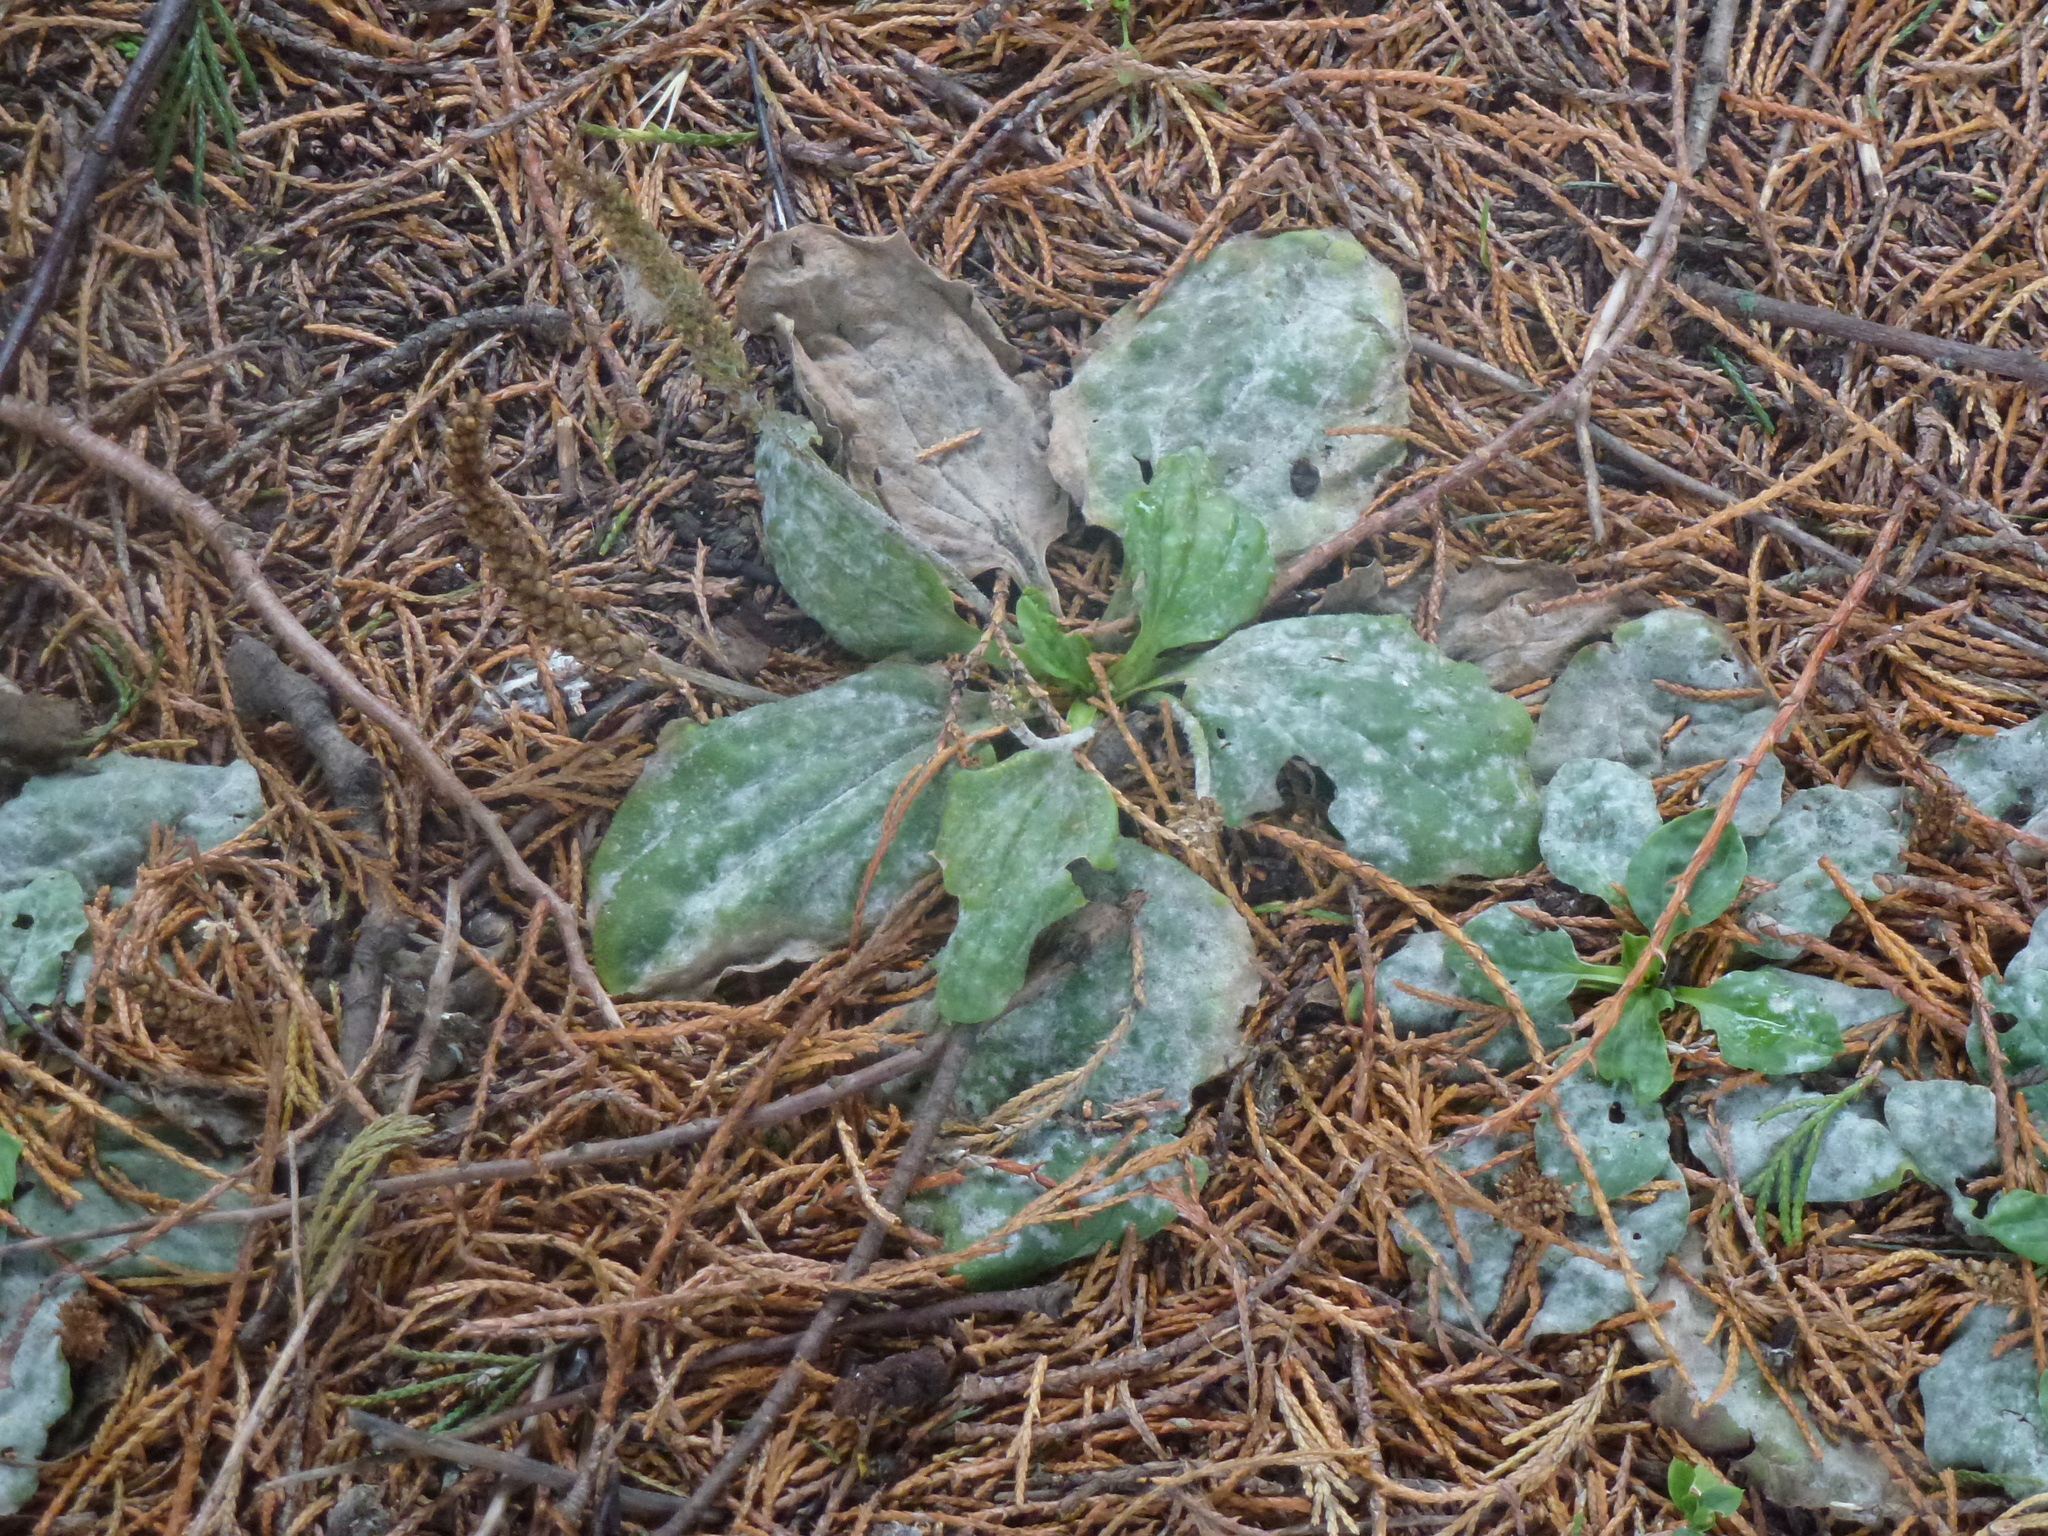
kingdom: Plantae
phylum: Tracheophyta
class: Magnoliopsida
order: Lamiales
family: Plantaginaceae
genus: Plantago
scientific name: Plantago major
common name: Common plantain
